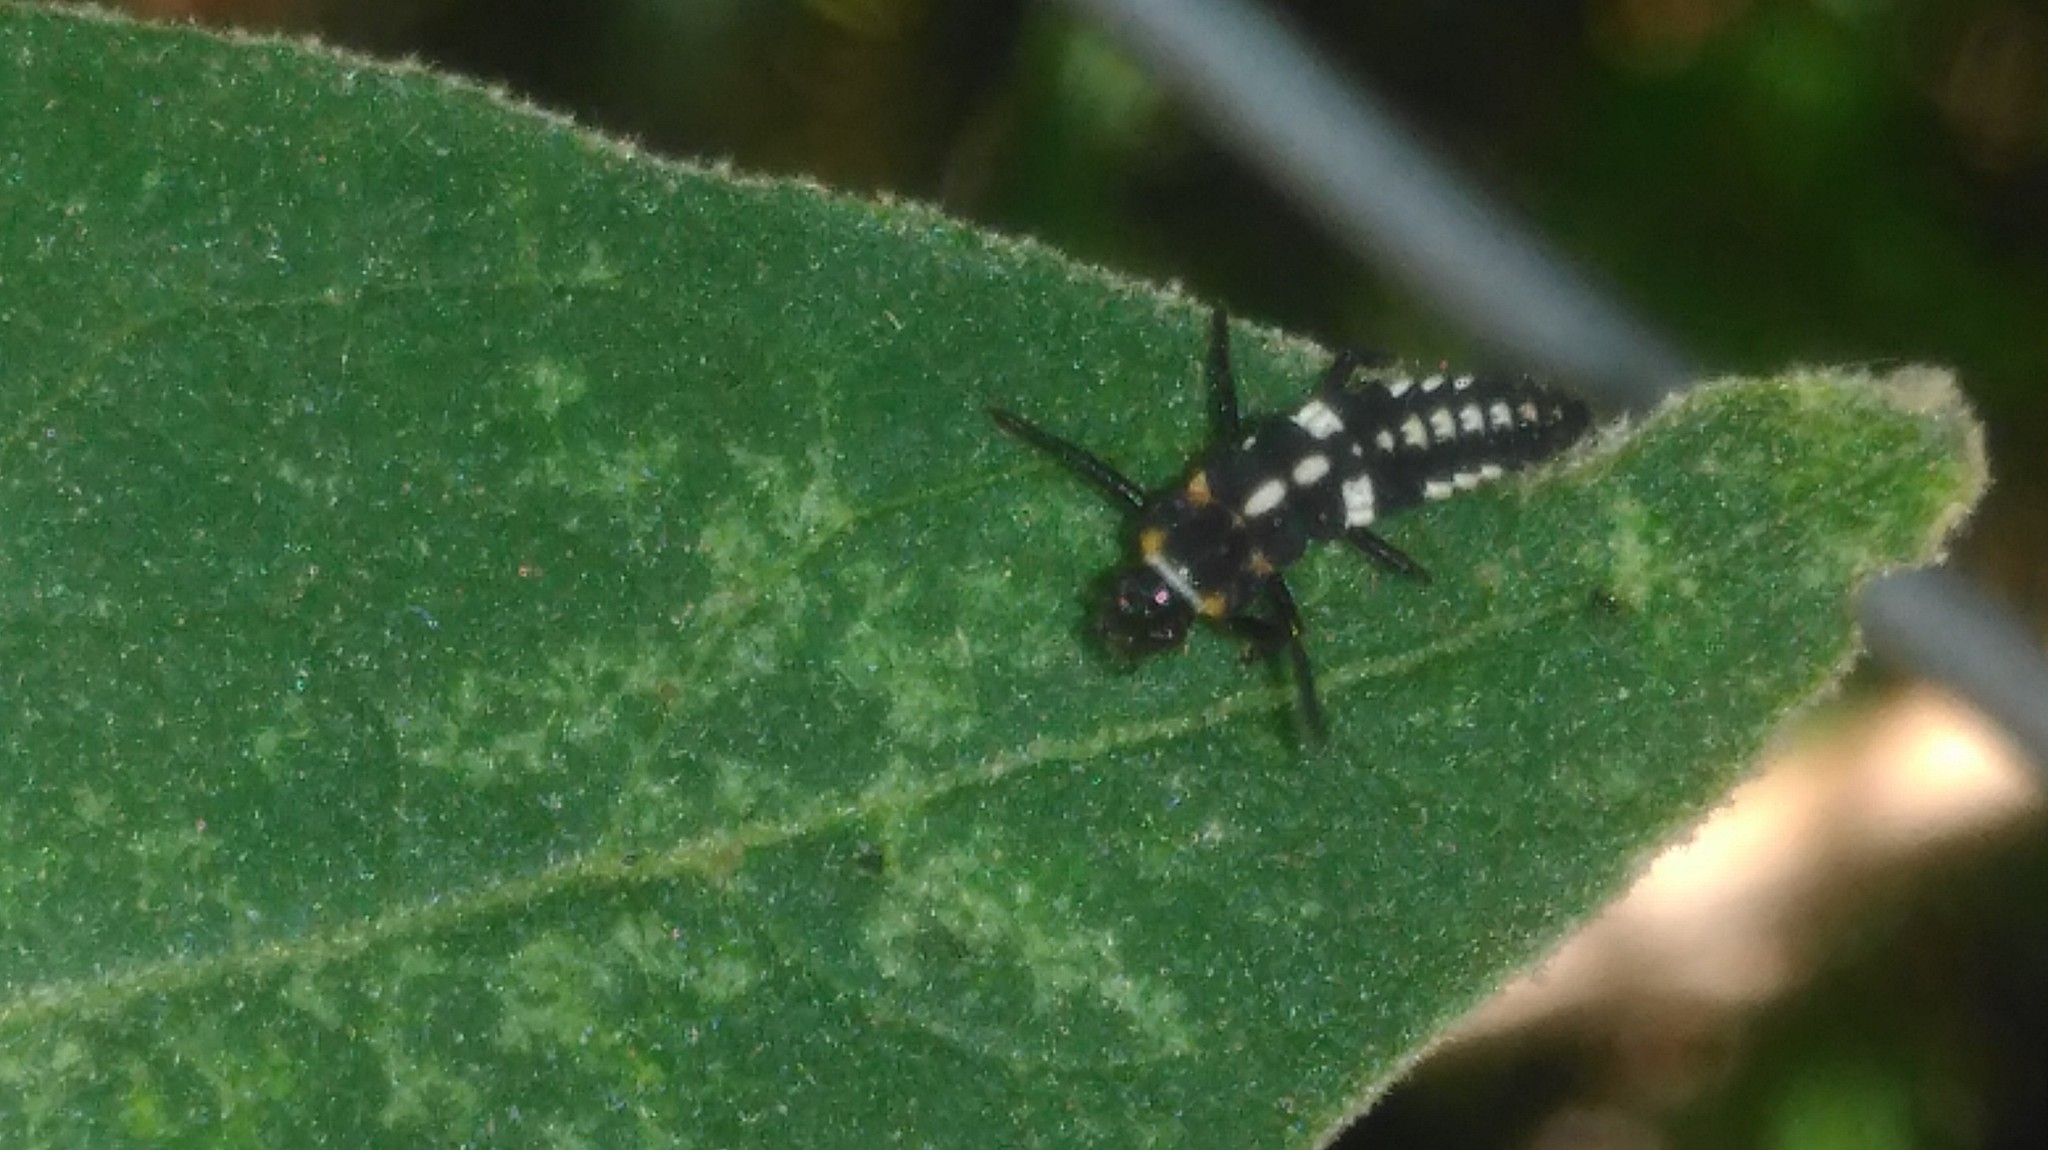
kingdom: Animalia
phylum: Arthropoda
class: Insecta
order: Coleoptera
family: Coccinellidae
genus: Eriopis
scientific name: Eriopis connexa
